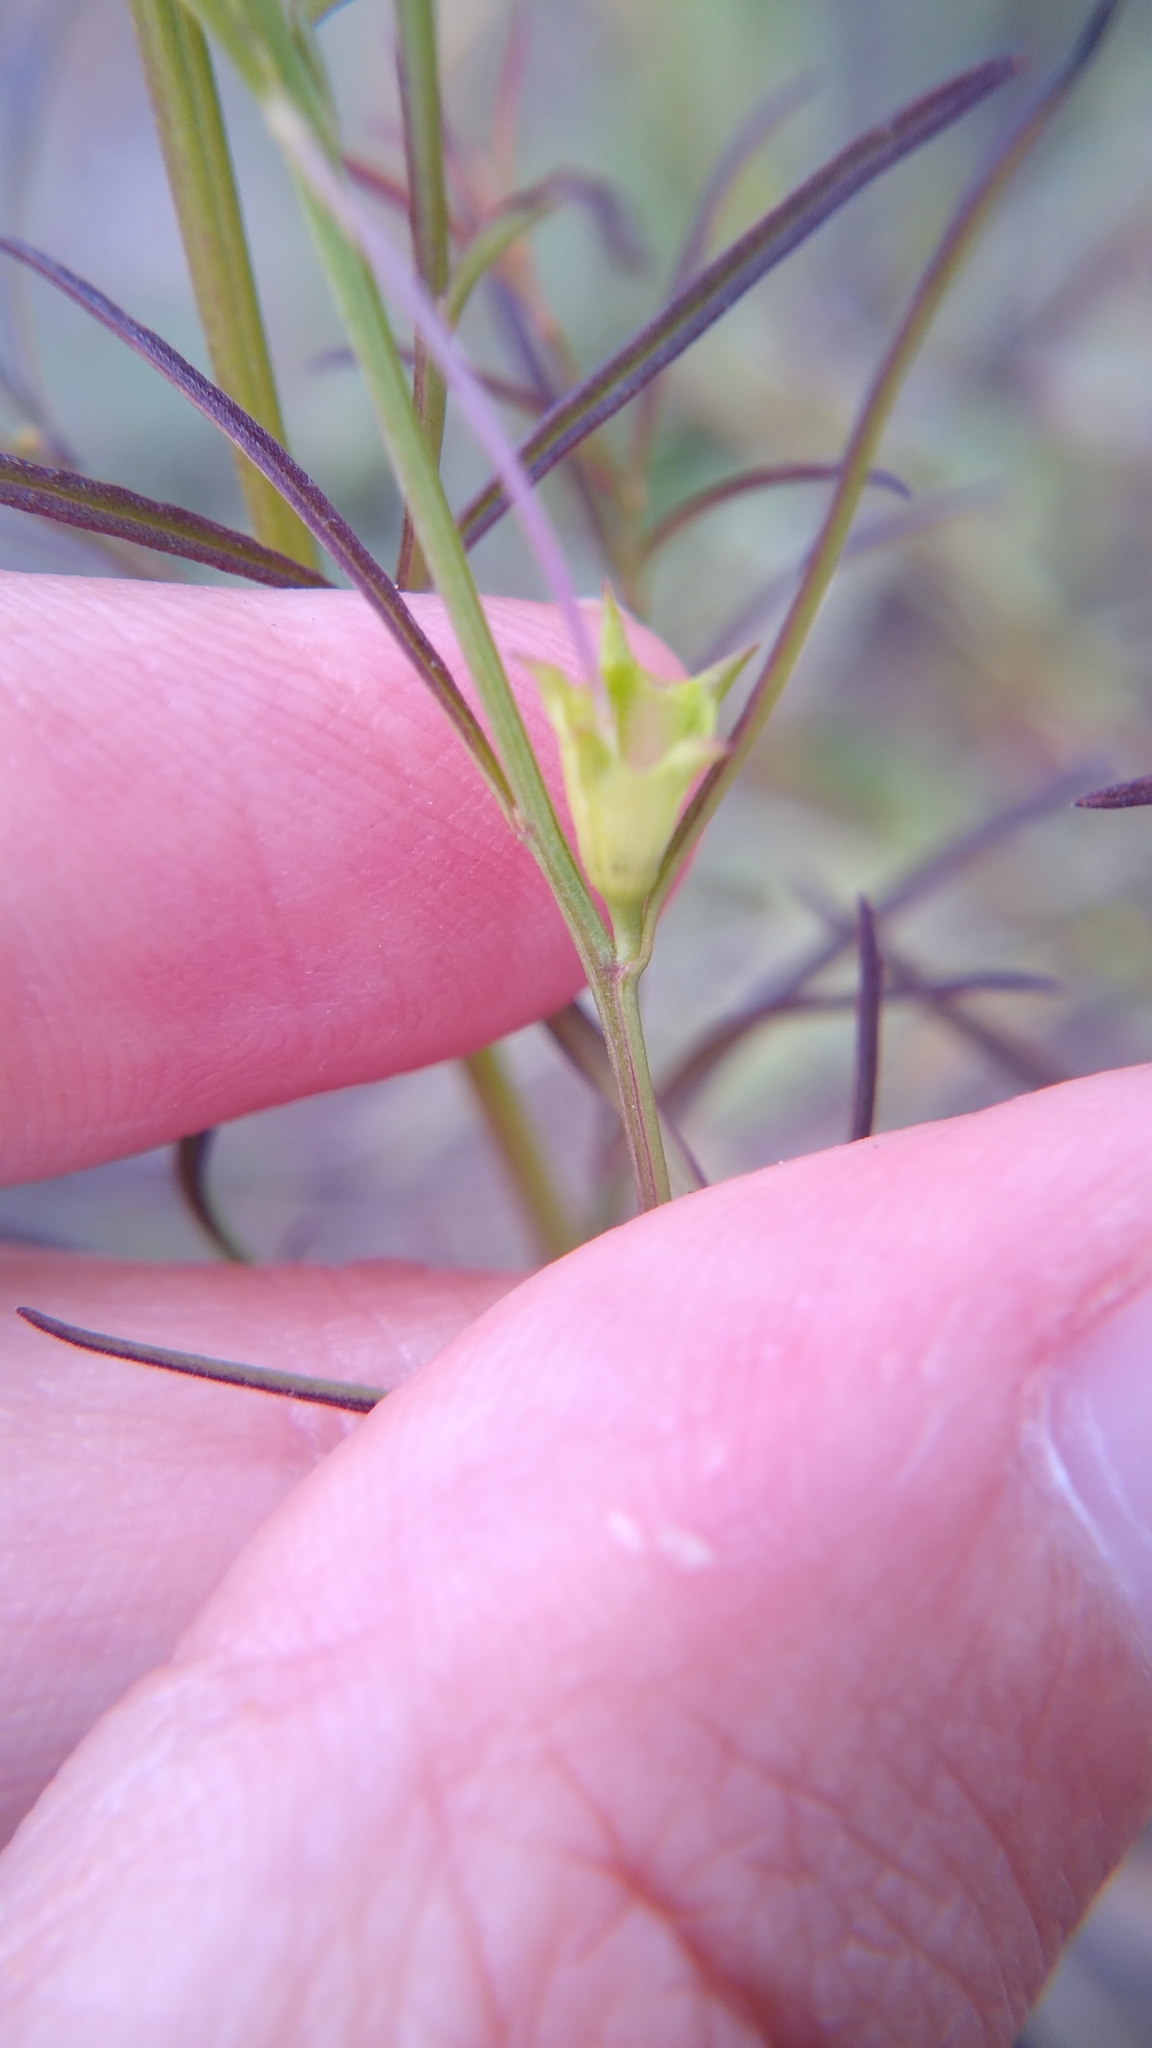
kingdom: Plantae
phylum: Tracheophyta
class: Magnoliopsida
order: Lamiales
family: Orobanchaceae
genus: Agalinis
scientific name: Agalinis purpurea
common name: Purple false foxglove
